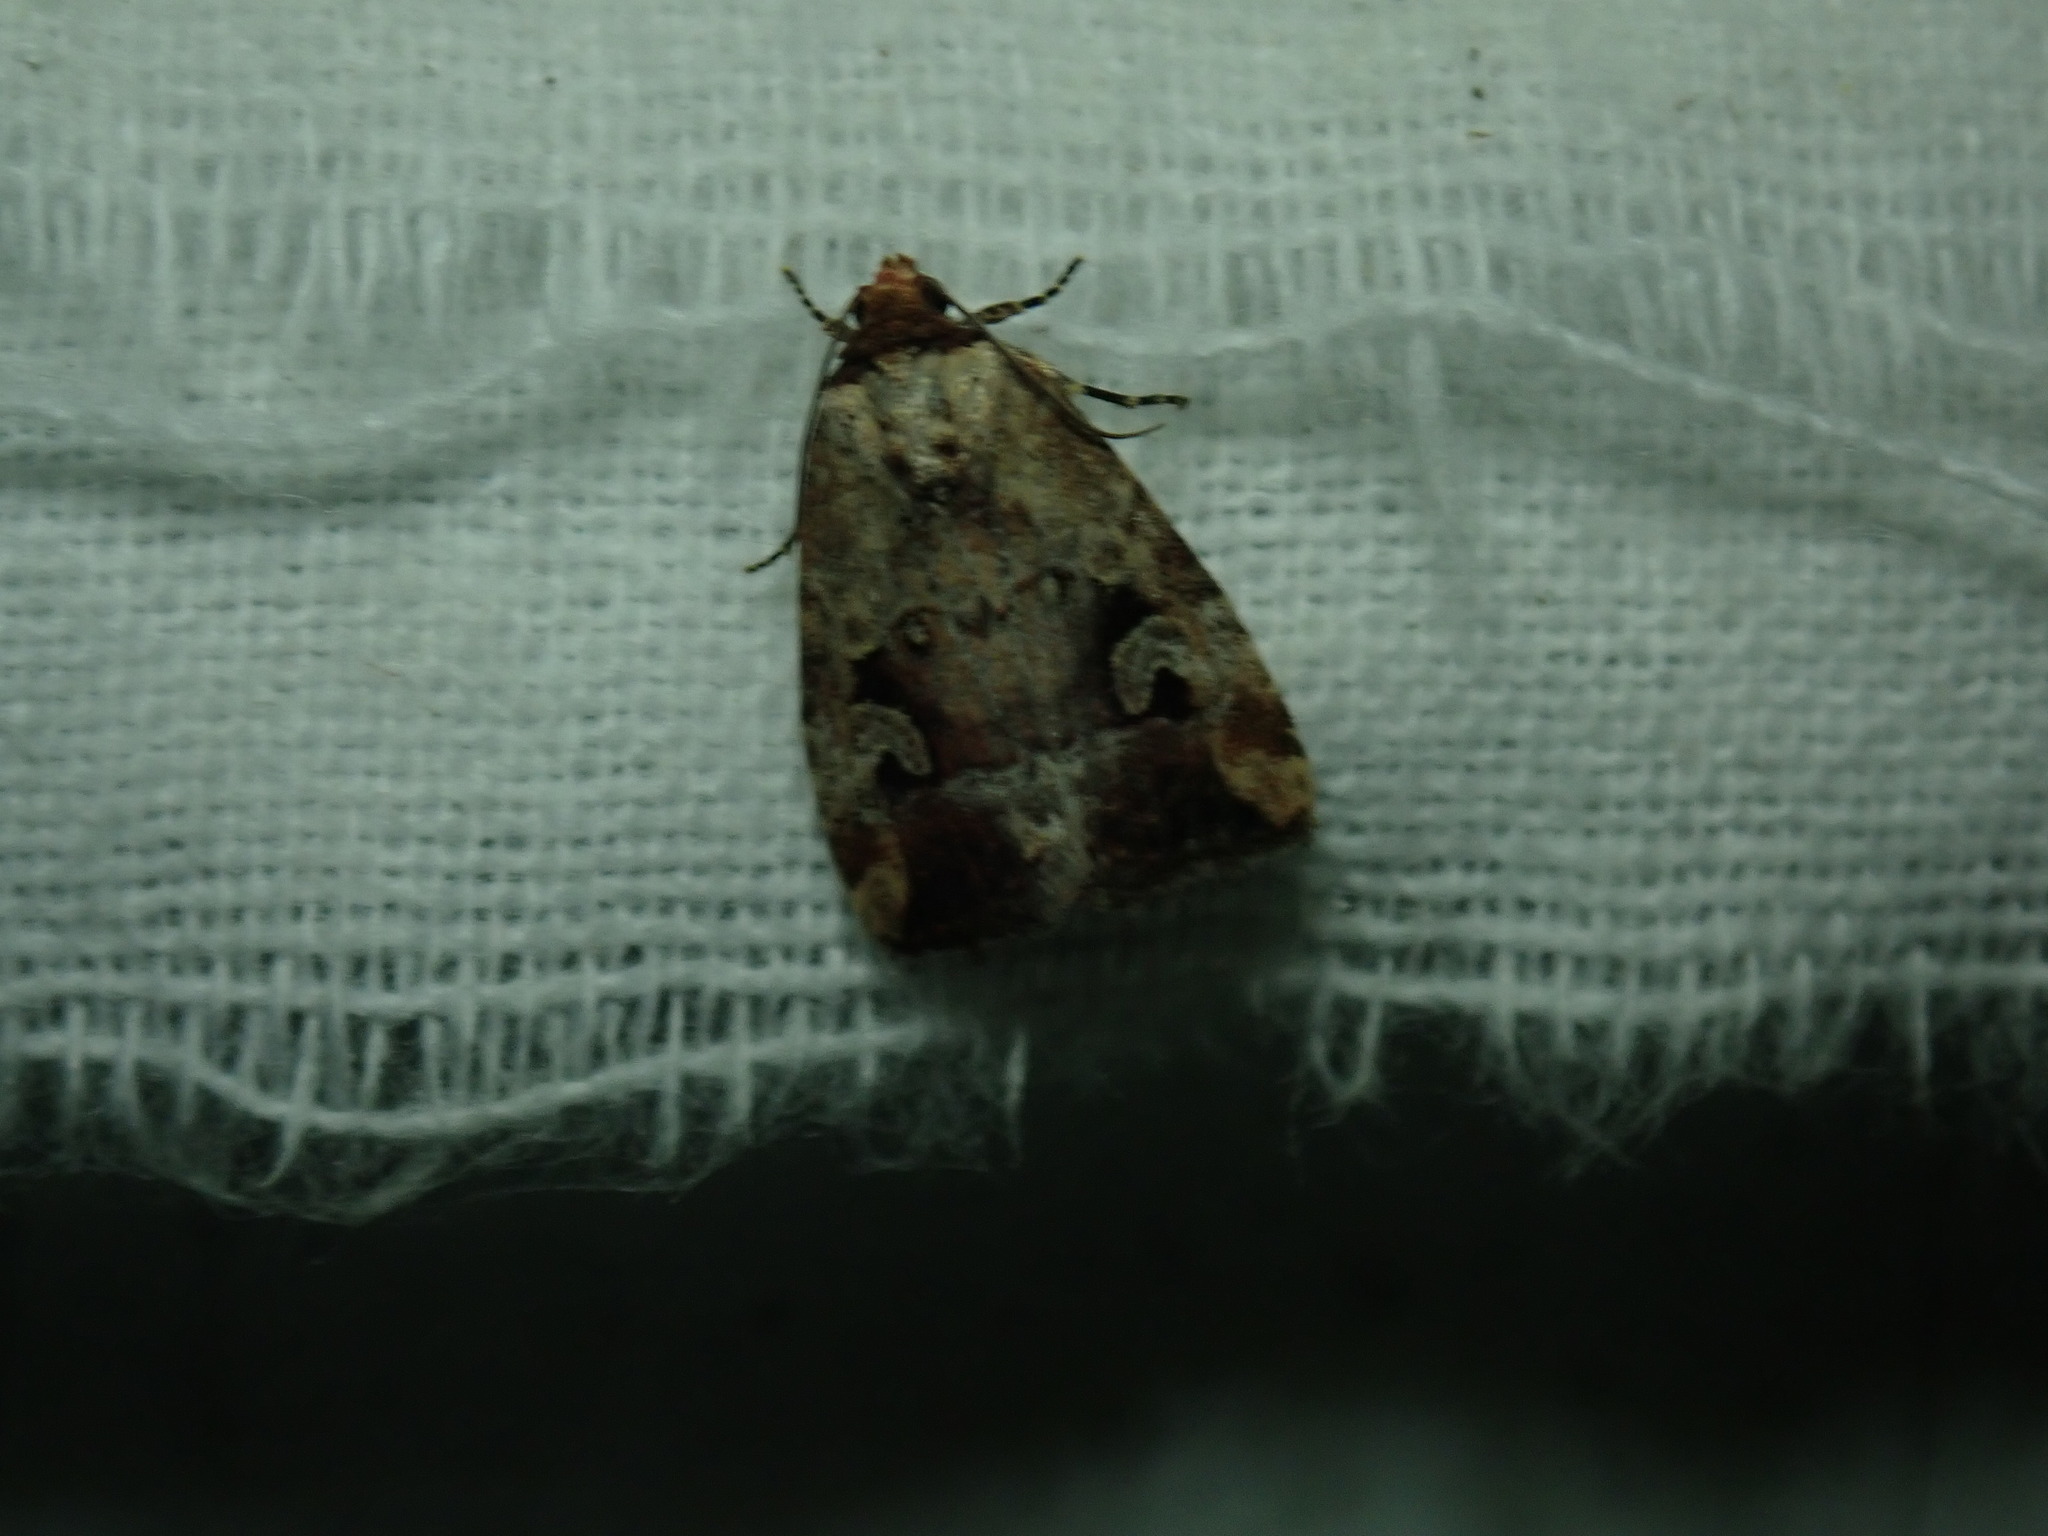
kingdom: Animalia
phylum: Arthropoda
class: Insecta
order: Lepidoptera
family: Noctuidae
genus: Elaphria
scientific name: Elaphria alapallida
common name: Pale-winged midget
